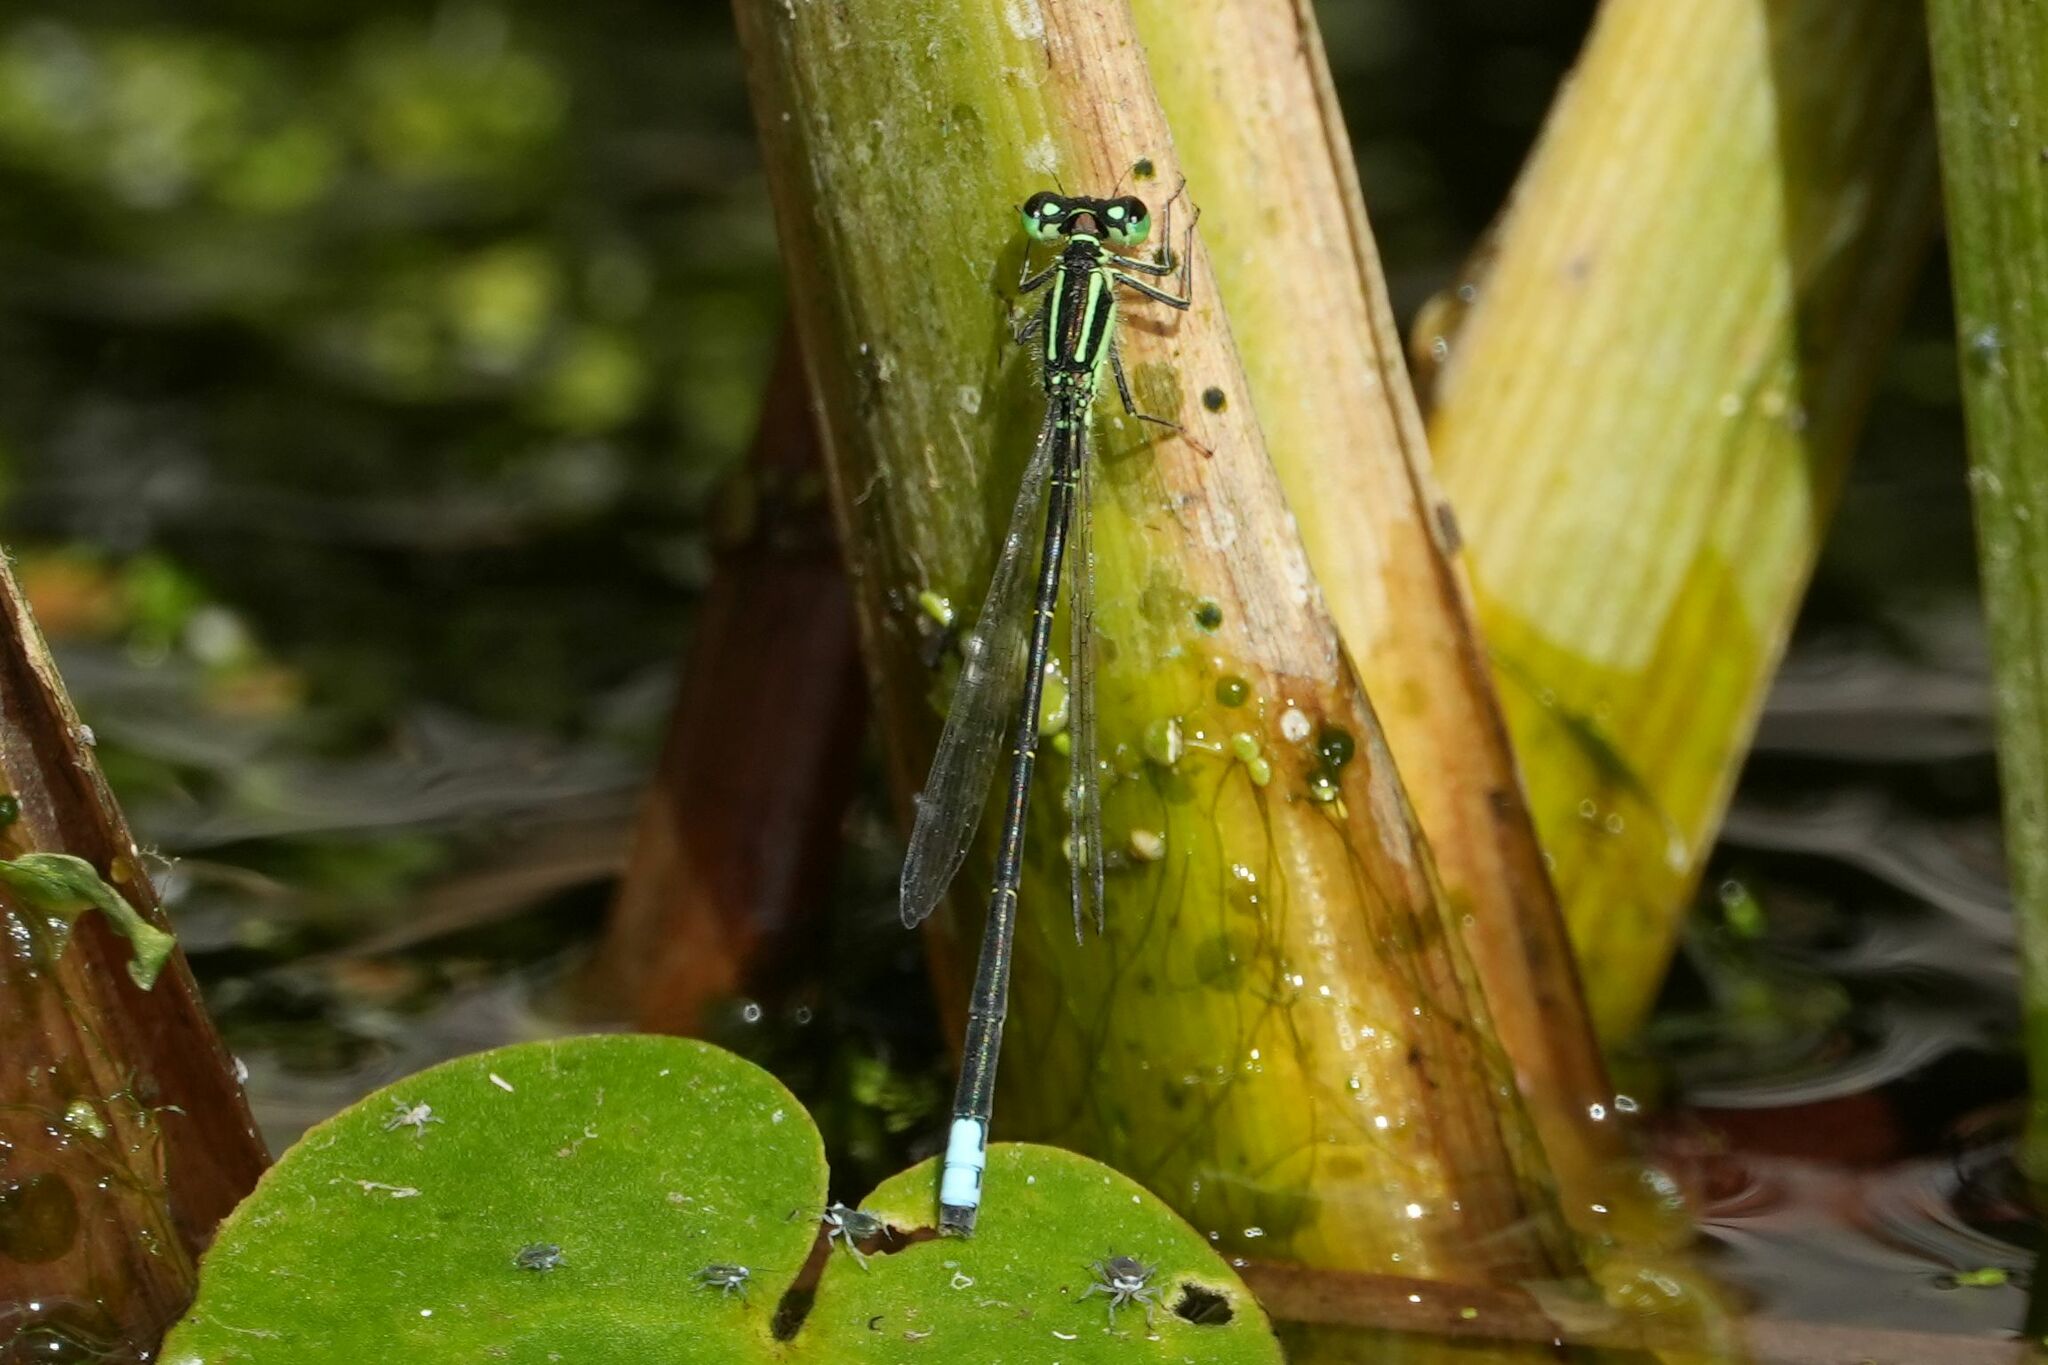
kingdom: Animalia
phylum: Arthropoda
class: Insecta
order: Odonata
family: Coenagrionidae
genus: Ischnura
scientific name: Ischnura verticalis
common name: Eastern forktail
